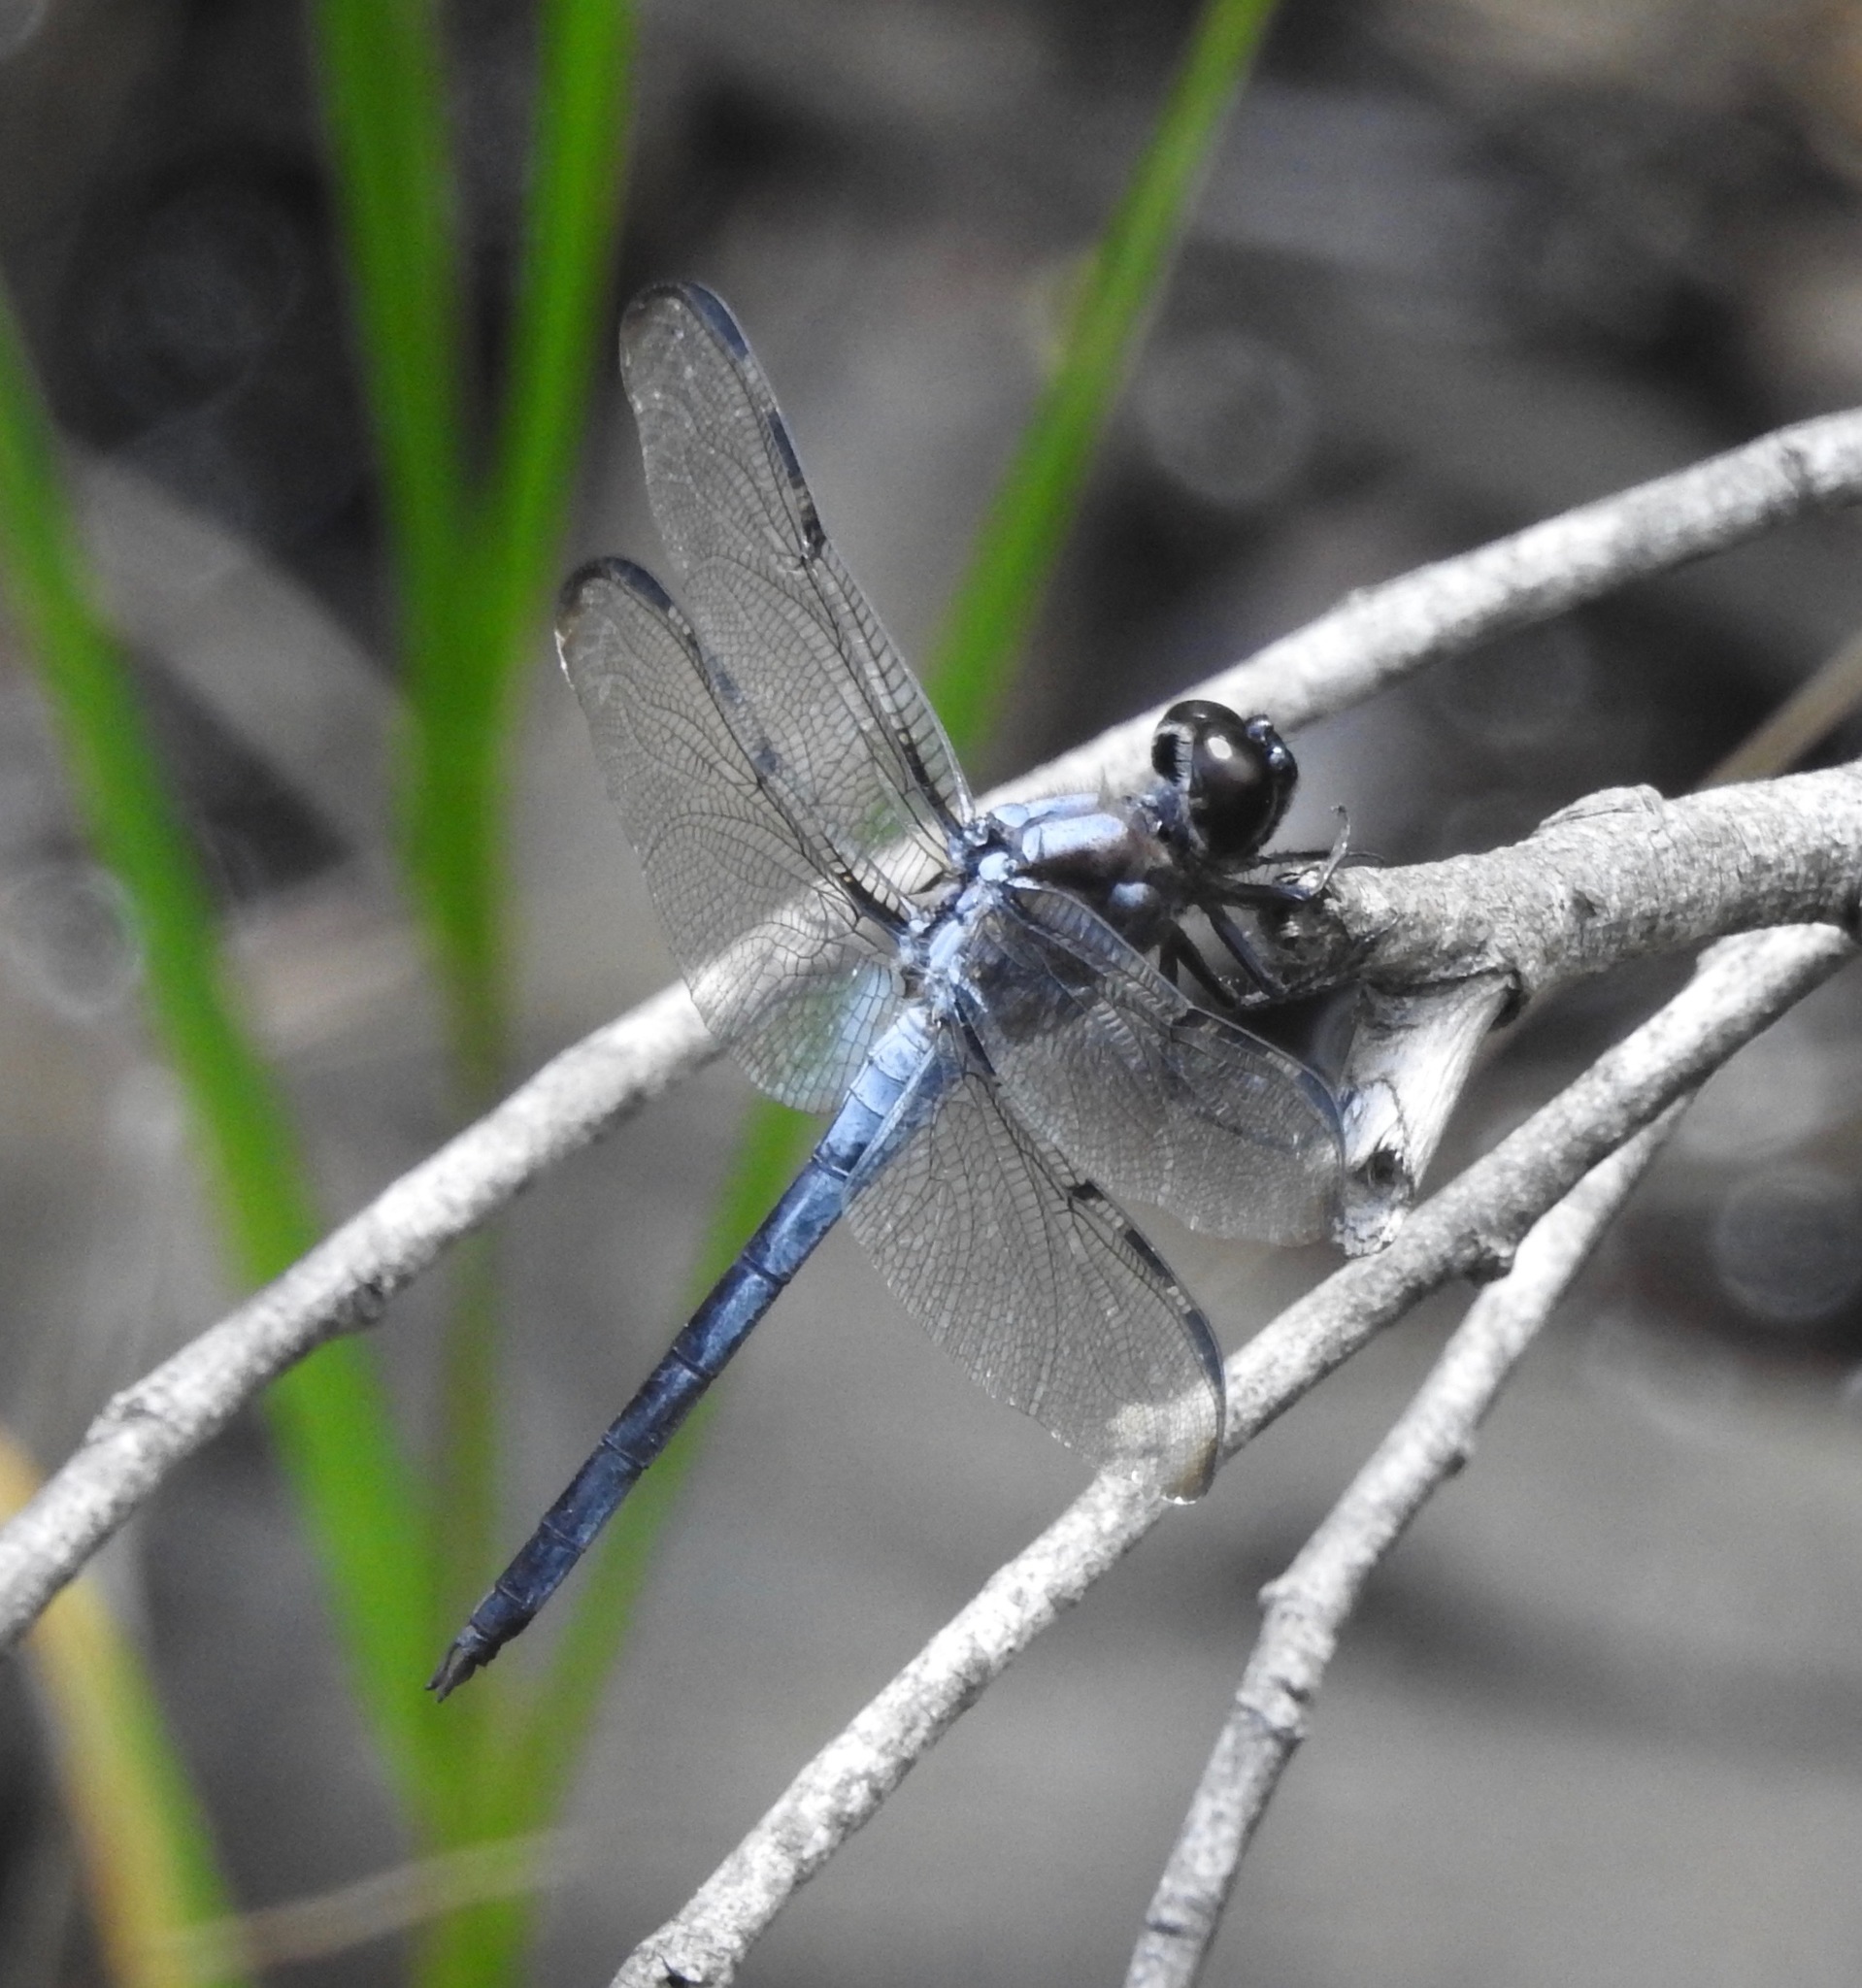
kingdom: Animalia
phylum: Arthropoda
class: Insecta
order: Odonata
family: Libellulidae
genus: Libellula
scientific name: Libellula axilena
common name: Bar-winged skimmer
